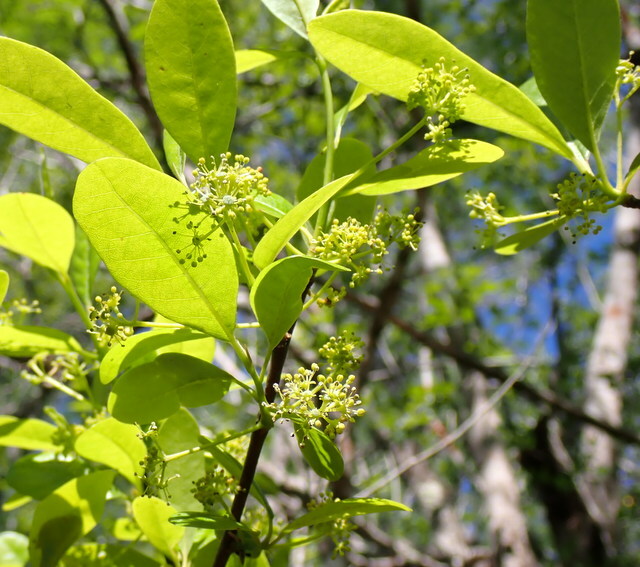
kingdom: Plantae
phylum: Tracheophyta
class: Magnoliopsida
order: Cornales
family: Nyssaceae
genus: Nyssa
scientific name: Nyssa ogeche
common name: Ogeechee tupelo
